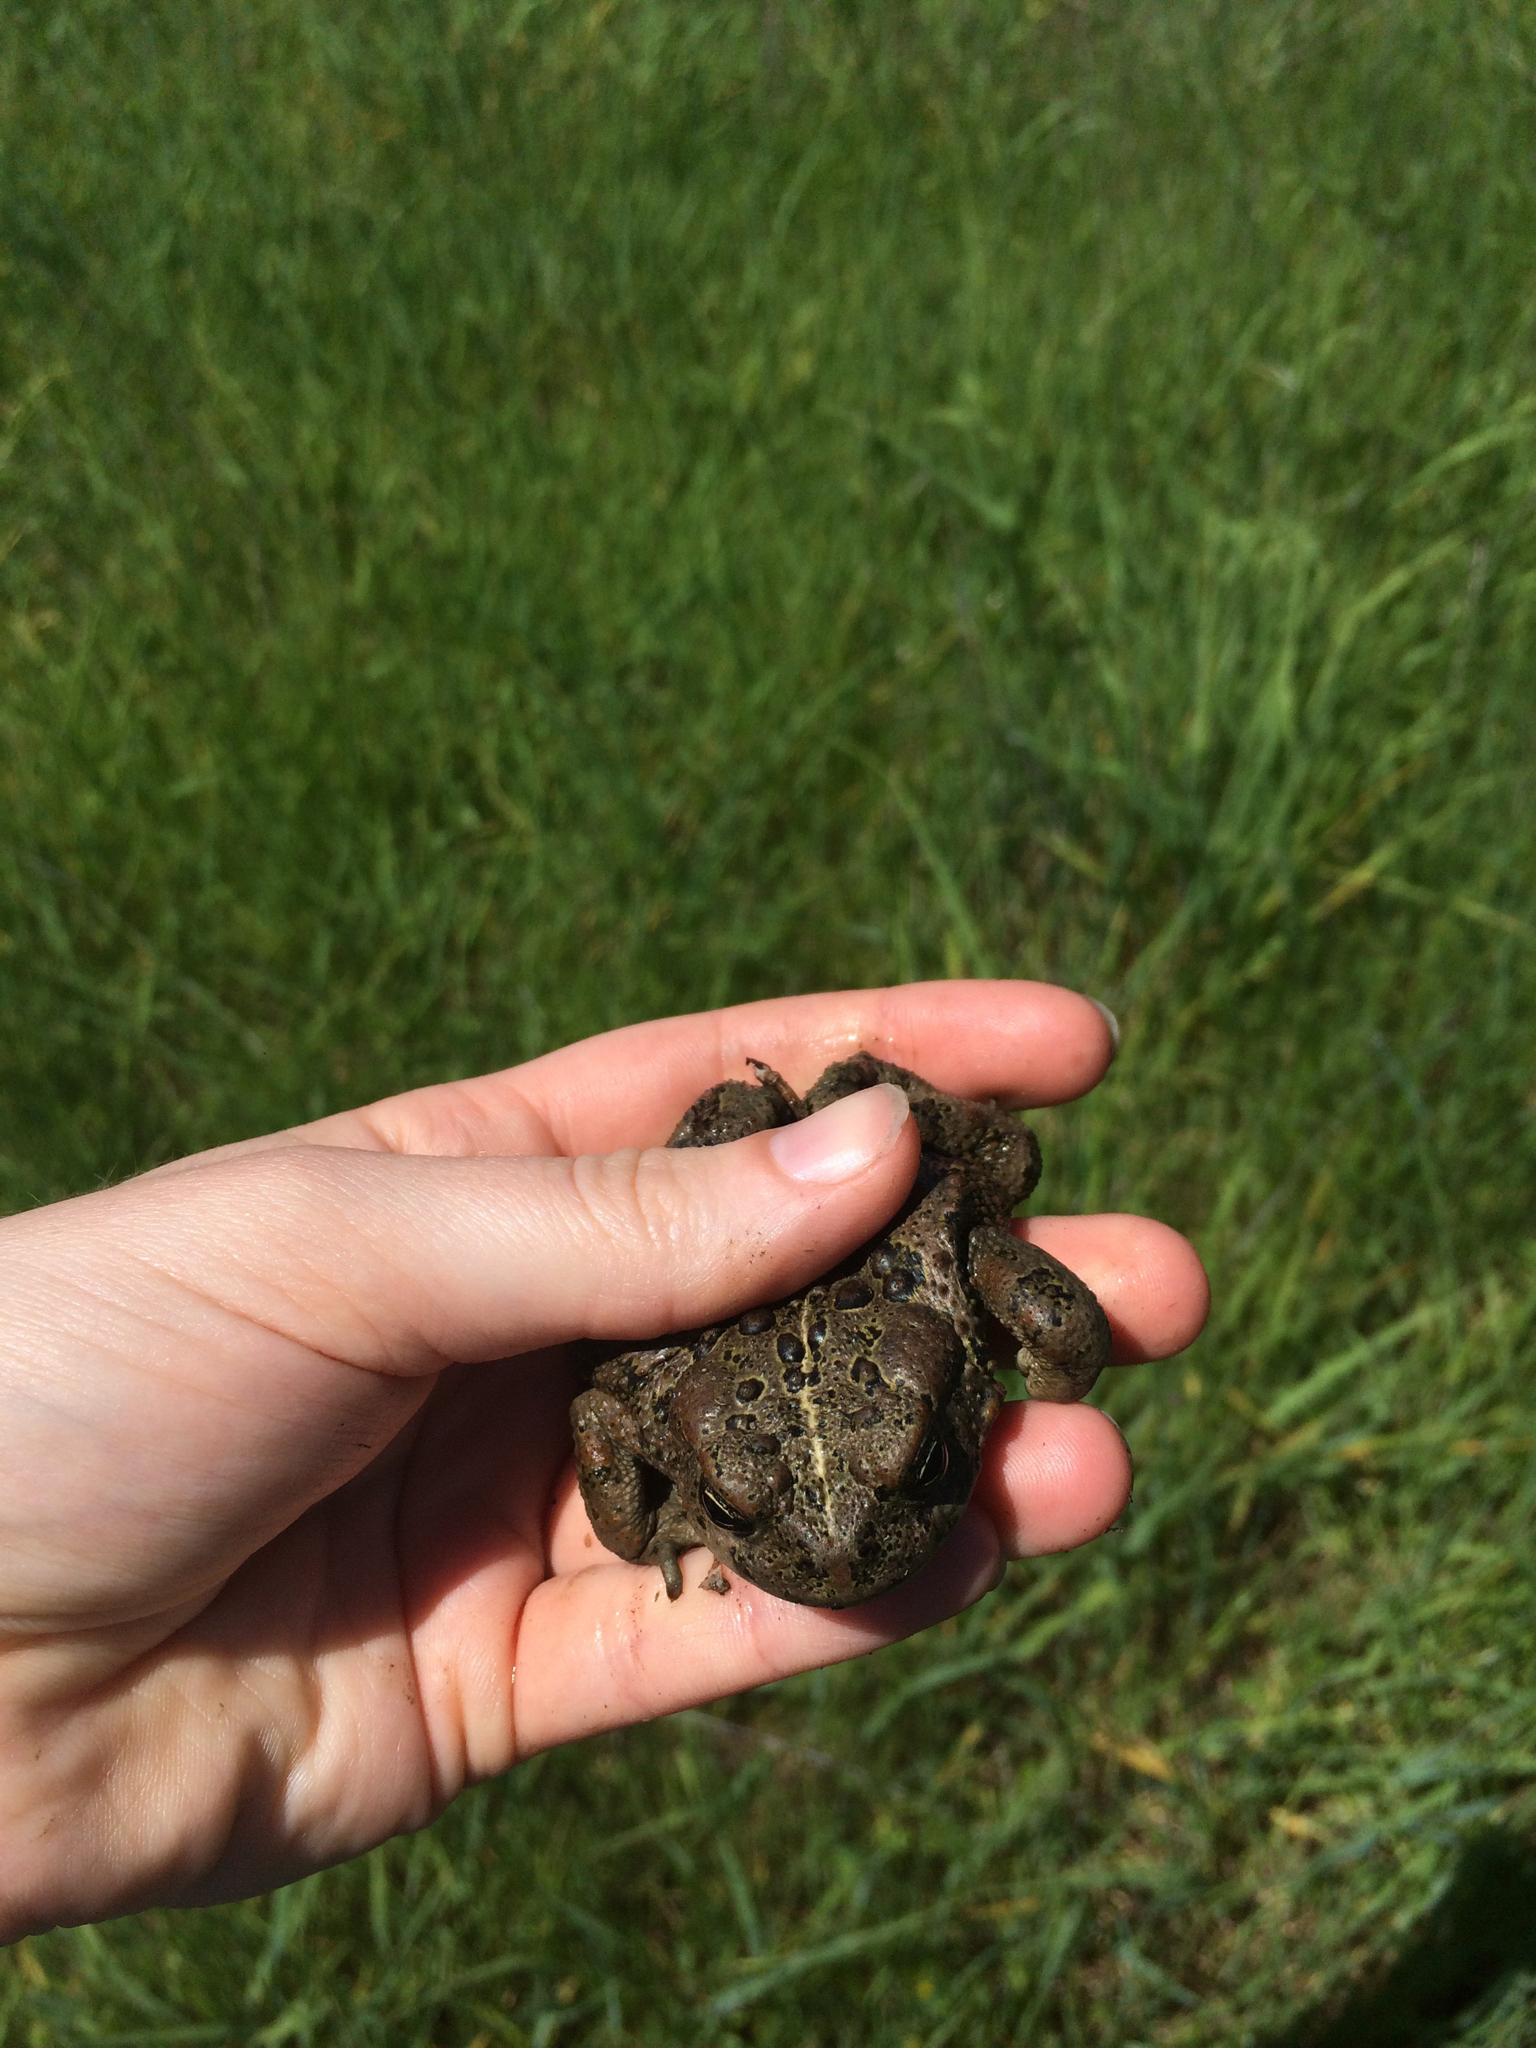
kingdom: Animalia
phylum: Chordata
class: Amphibia
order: Anura
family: Bufonidae
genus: Anaxyrus
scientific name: Anaxyrus boreas
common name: Western toad
